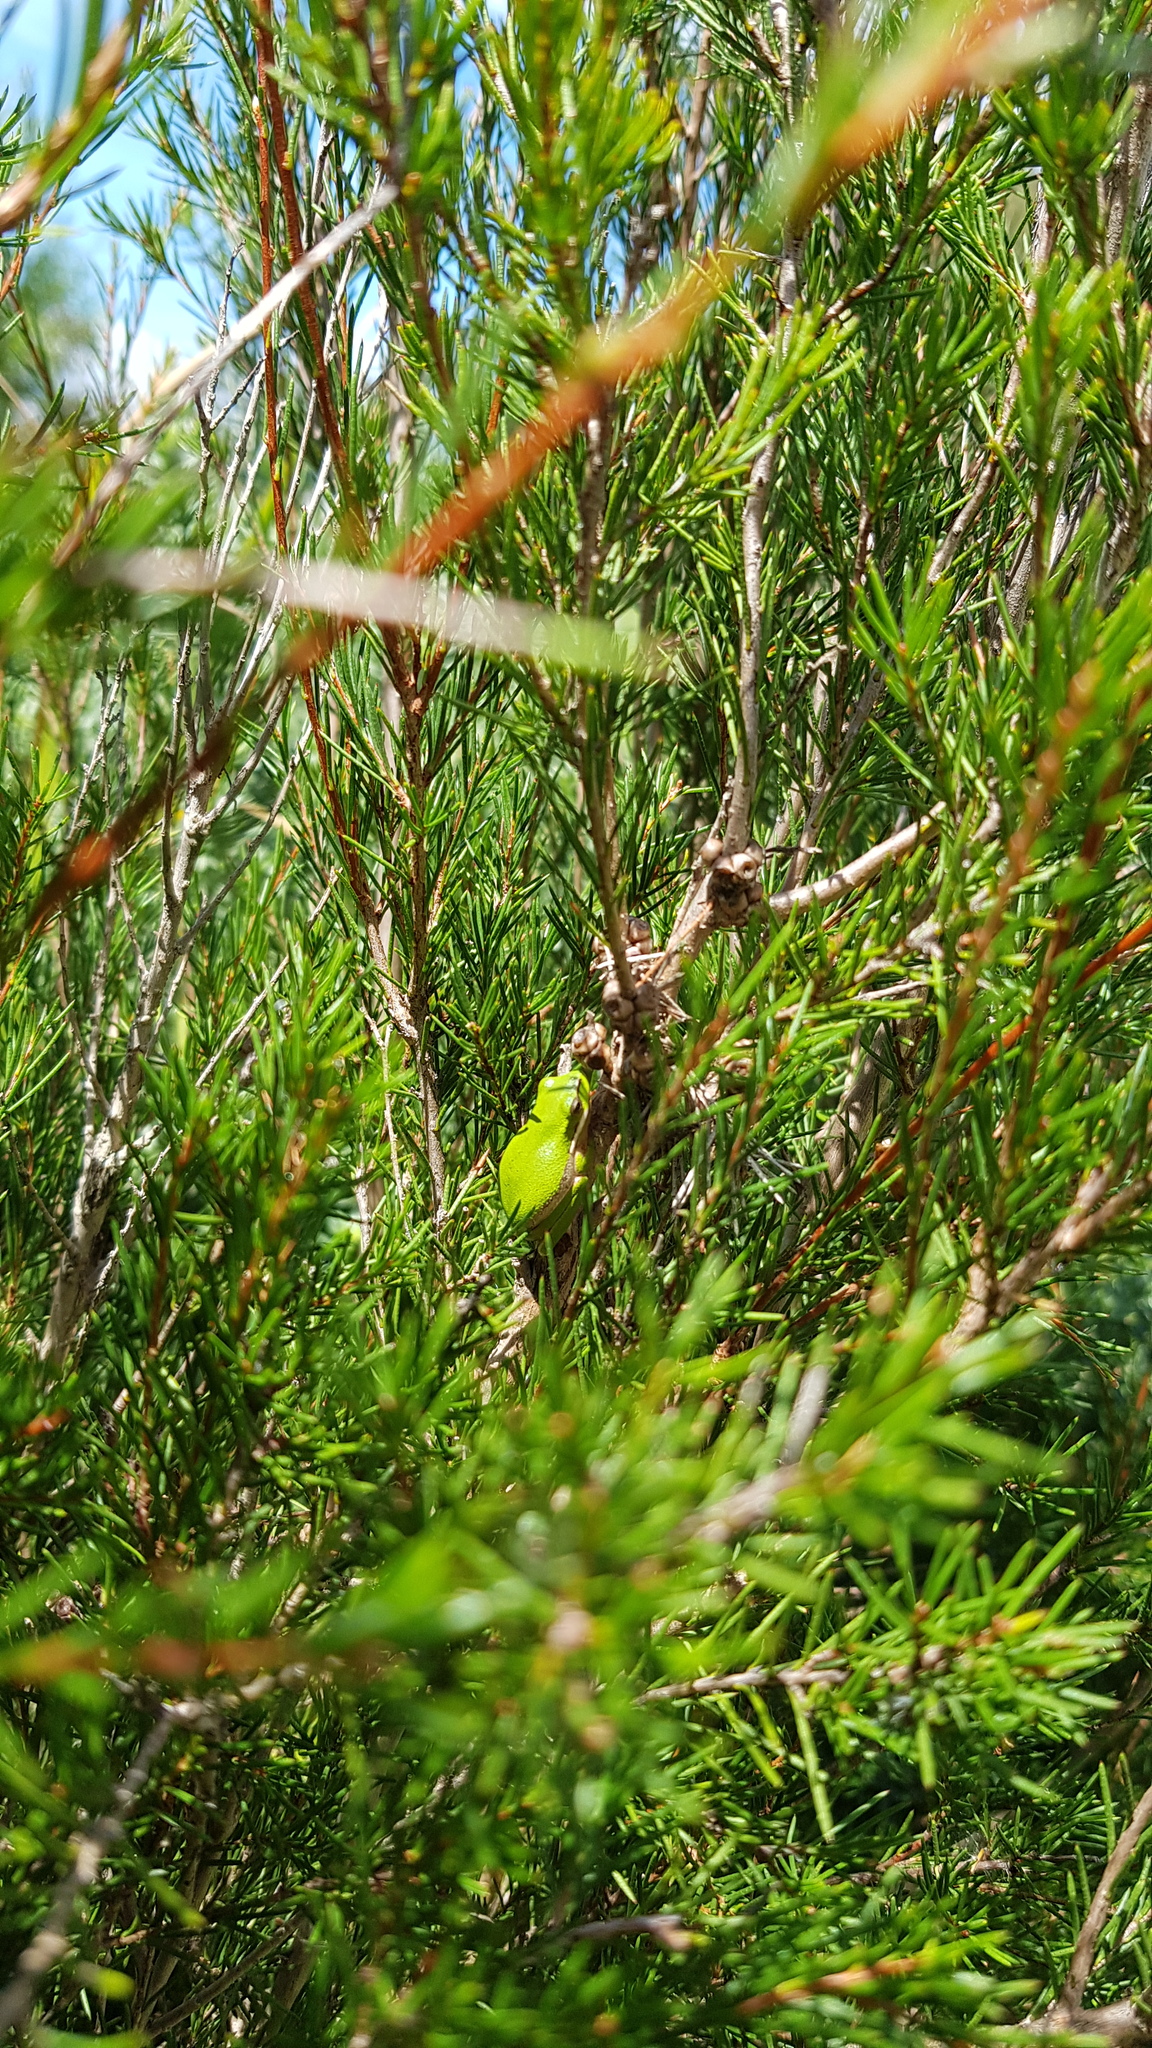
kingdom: Animalia
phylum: Chordata
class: Amphibia
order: Anura
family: Pelodryadidae
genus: Litoria
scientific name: Litoria fallax
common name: Eastern dwarf treefrog
